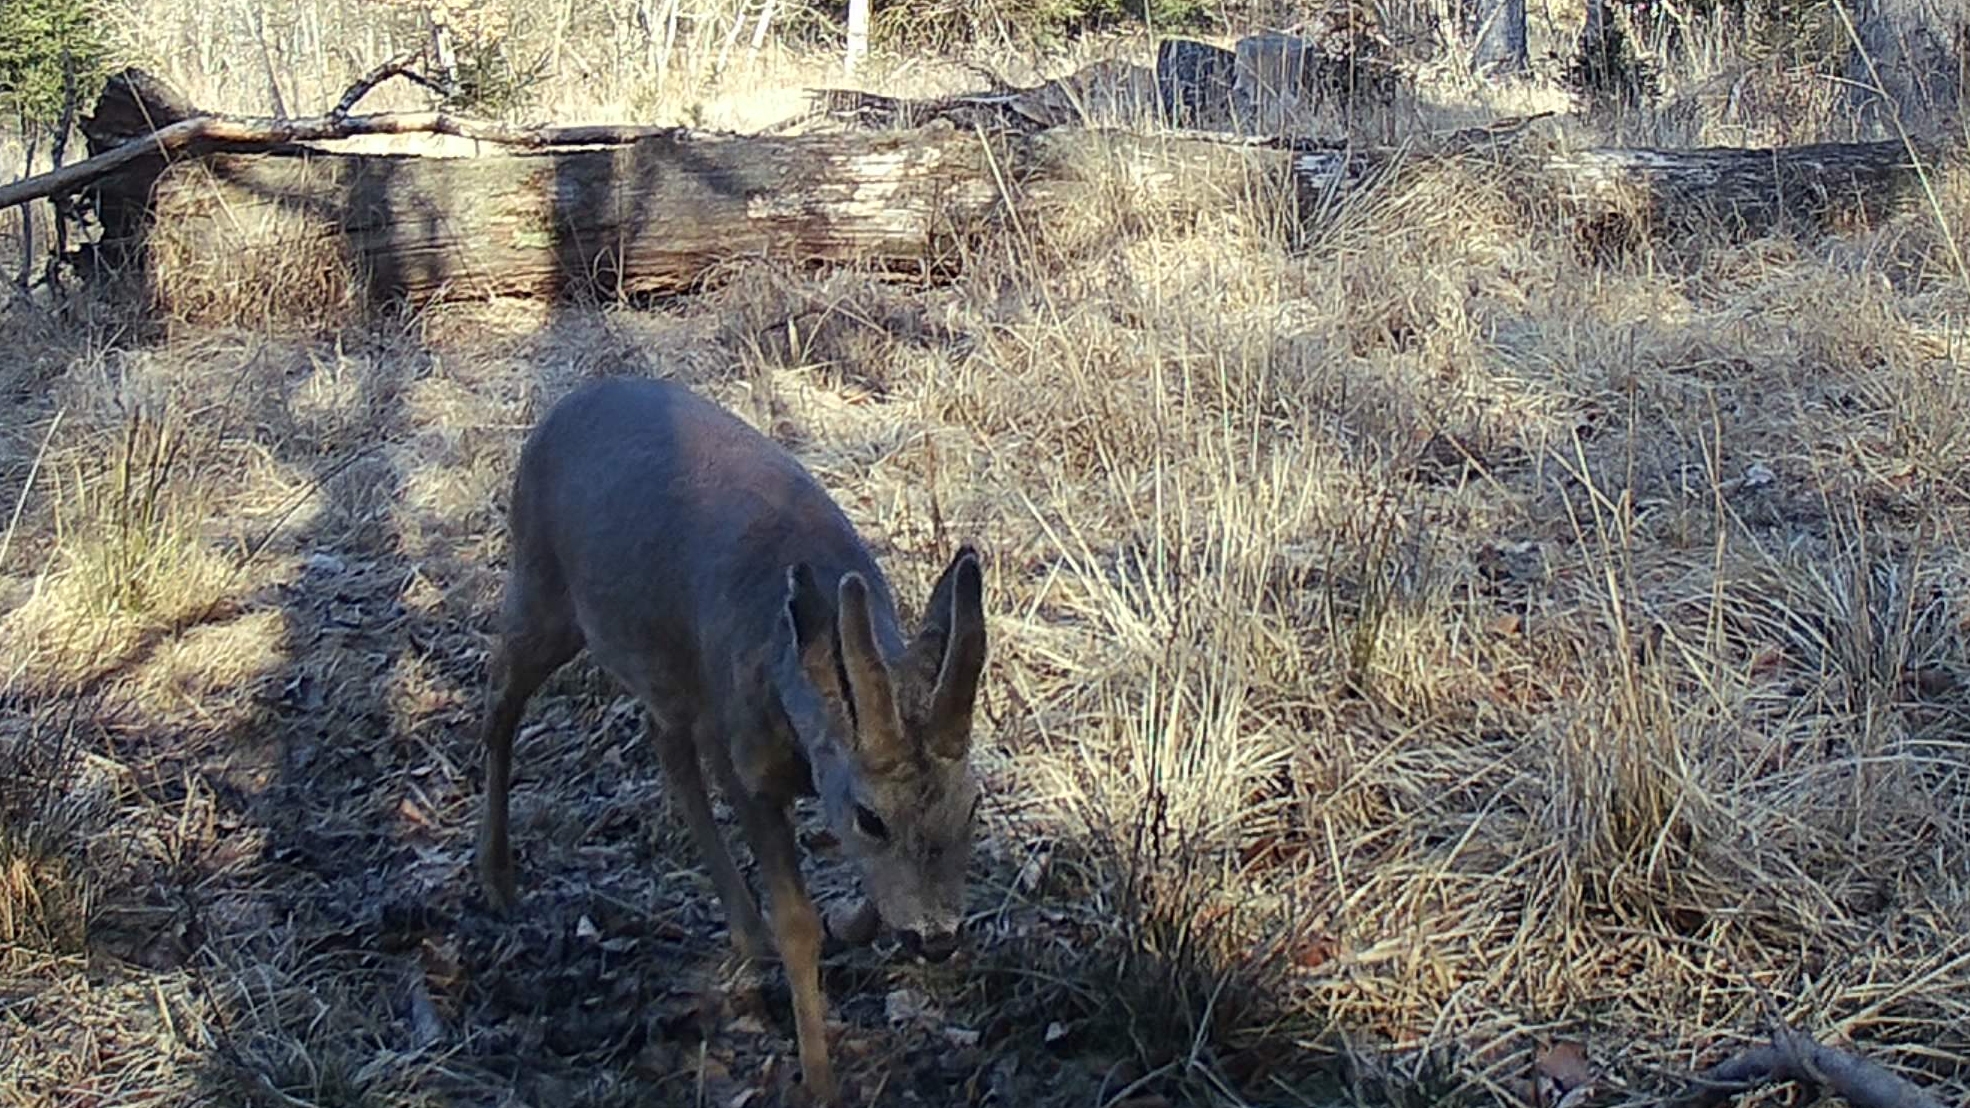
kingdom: Animalia
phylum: Chordata
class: Mammalia
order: Artiodactyla
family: Cervidae
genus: Capreolus
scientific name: Capreolus capreolus
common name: Western roe deer
